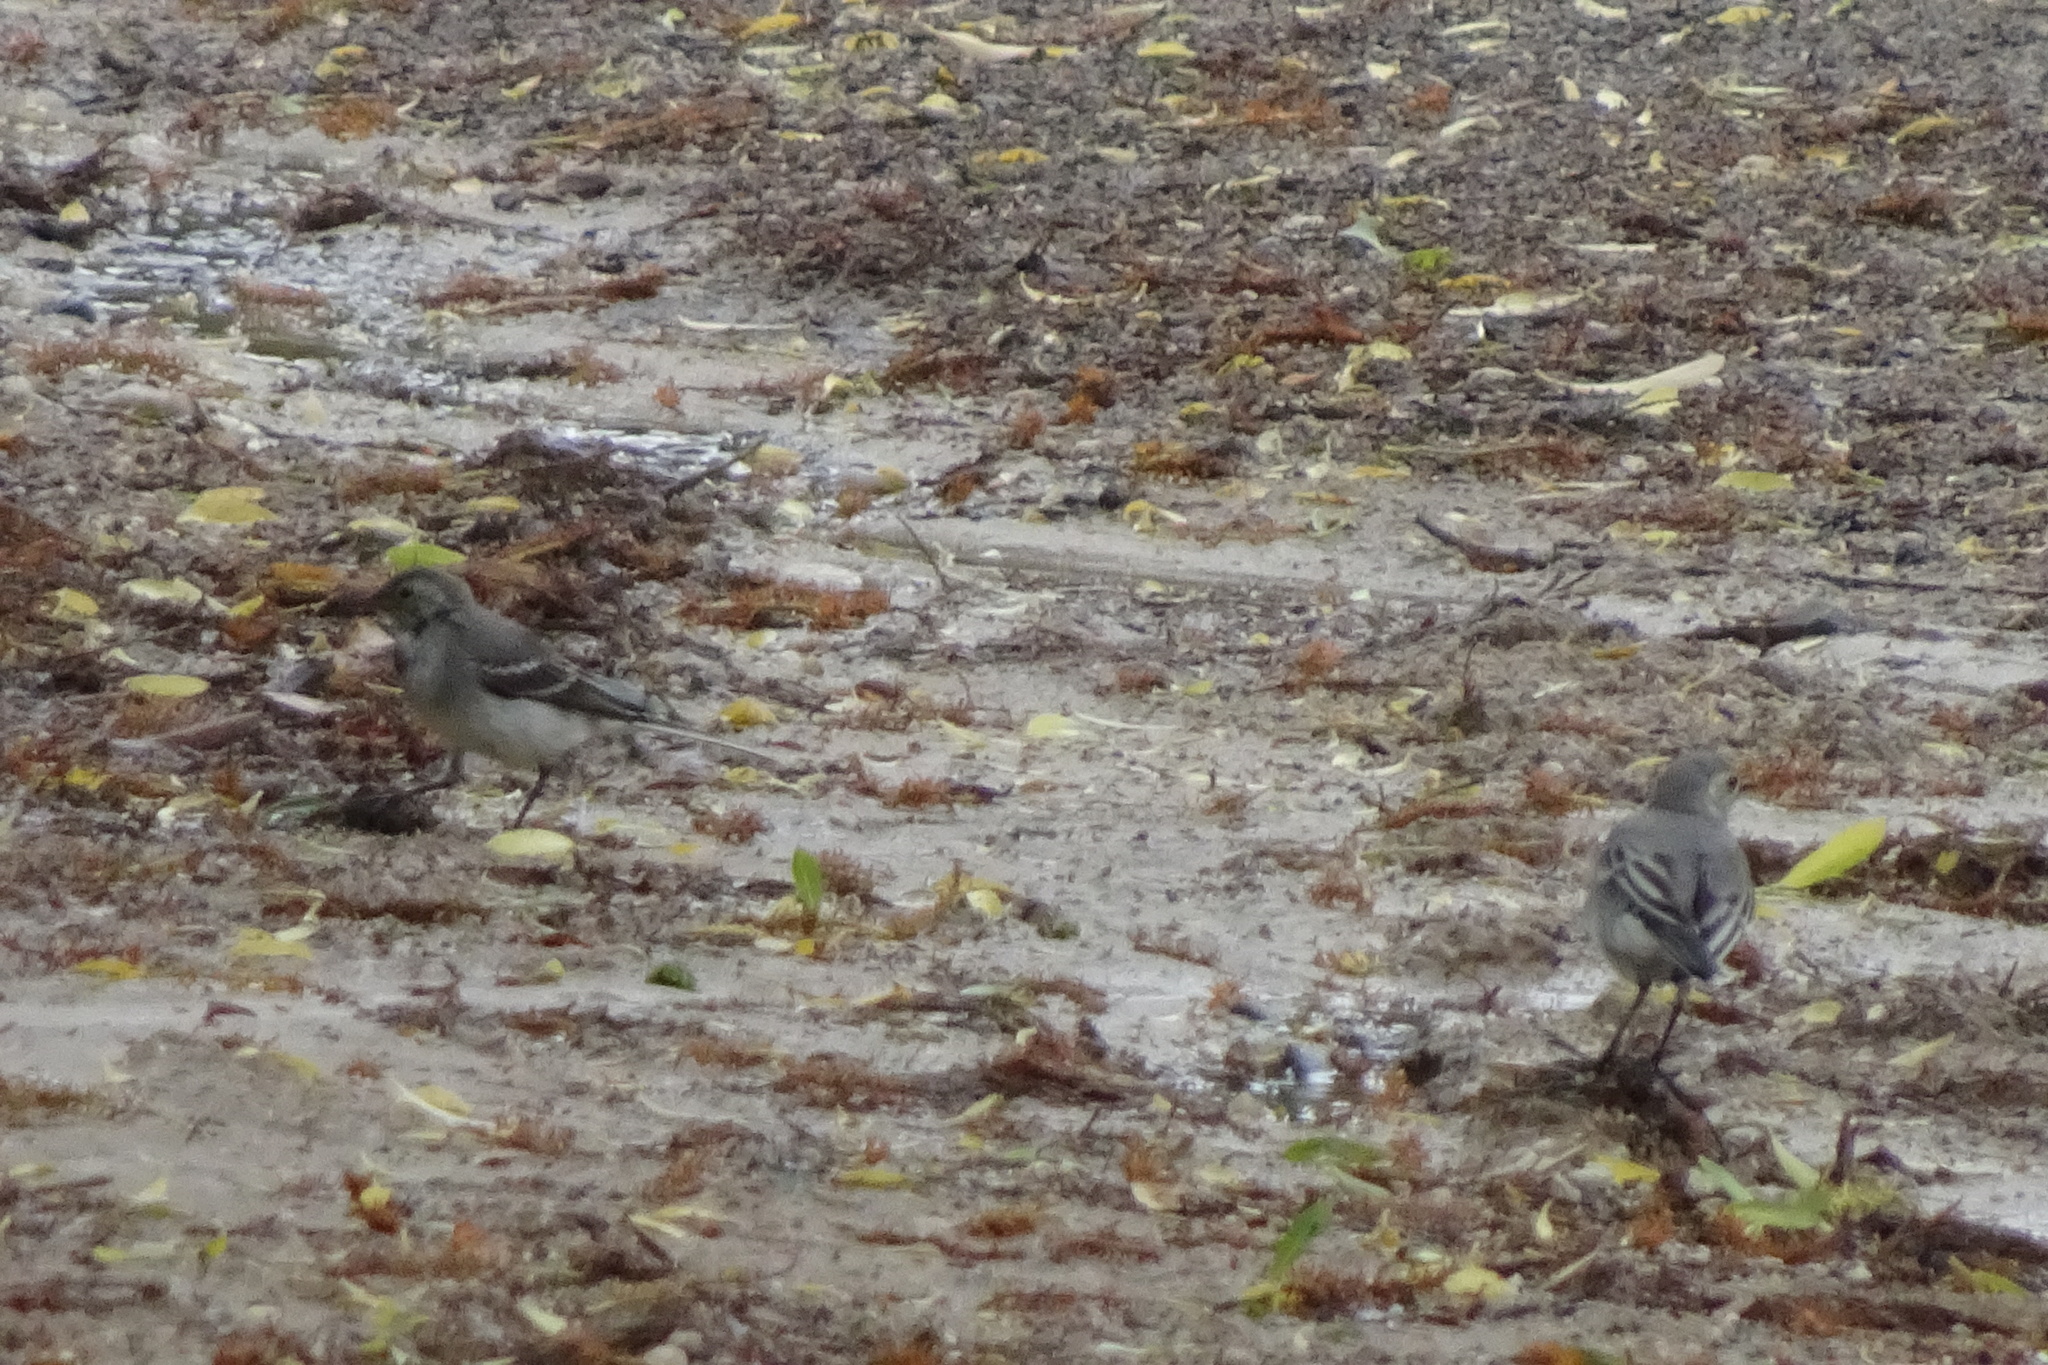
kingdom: Animalia
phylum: Chordata
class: Aves
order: Passeriformes
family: Motacillidae
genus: Motacilla
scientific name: Motacilla alba
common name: White wagtail
